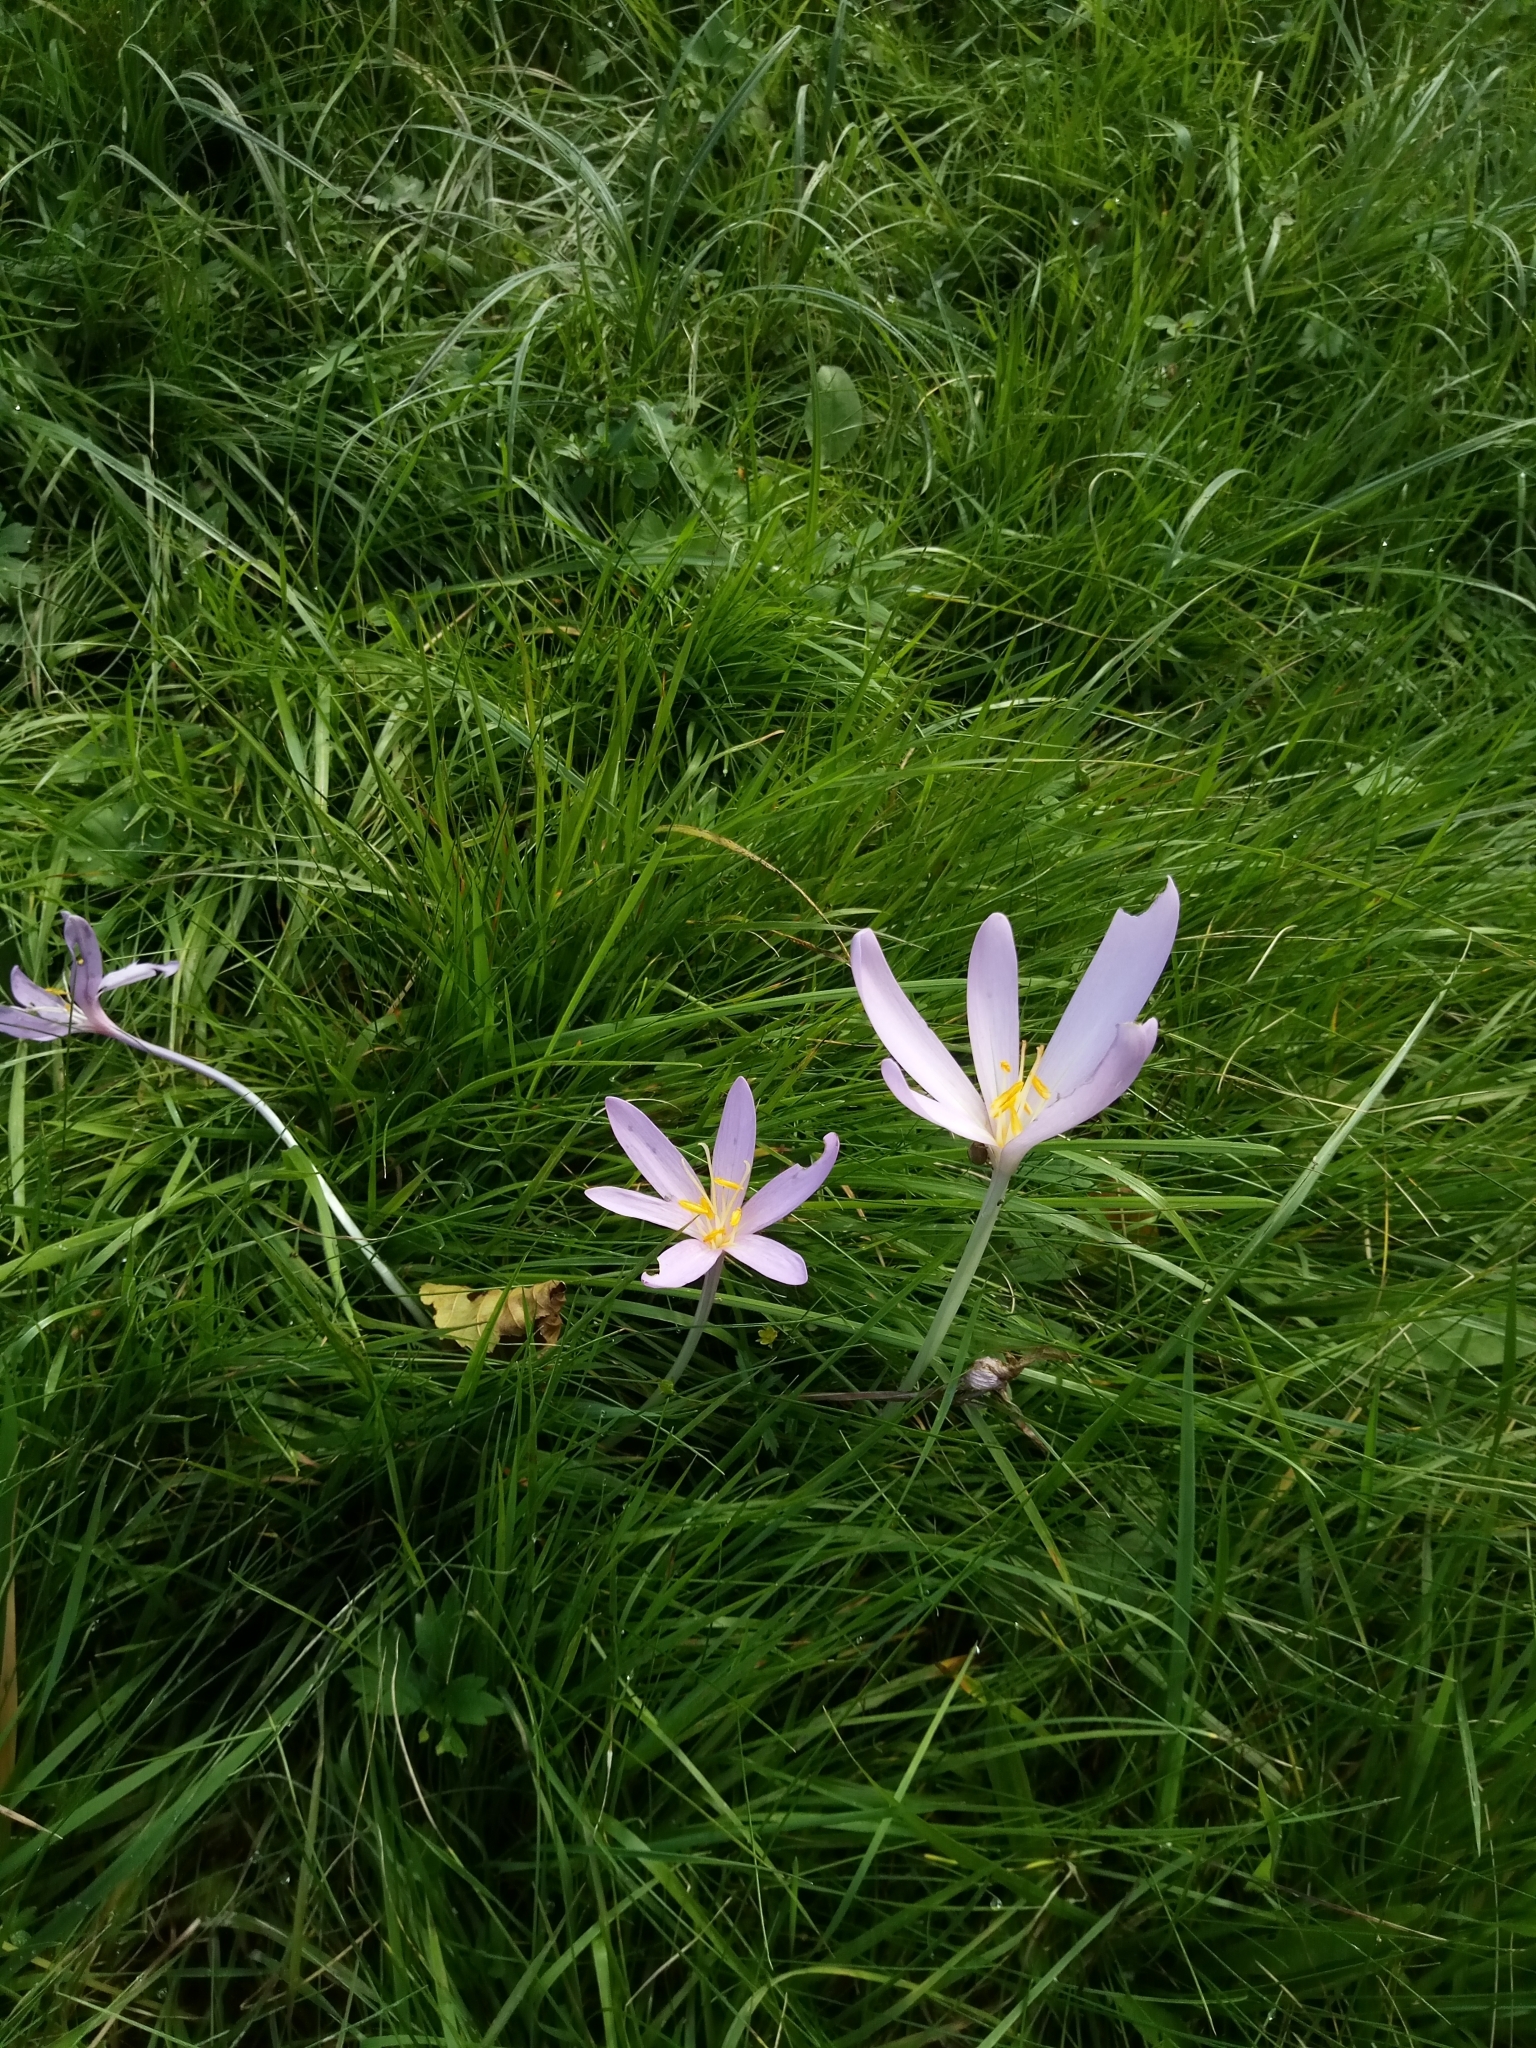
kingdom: Plantae
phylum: Tracheophyta
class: Liliopsida
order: Liliales
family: Colchicaceae
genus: Colchicum
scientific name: Colchicum autumnale
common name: Autumn crocus
